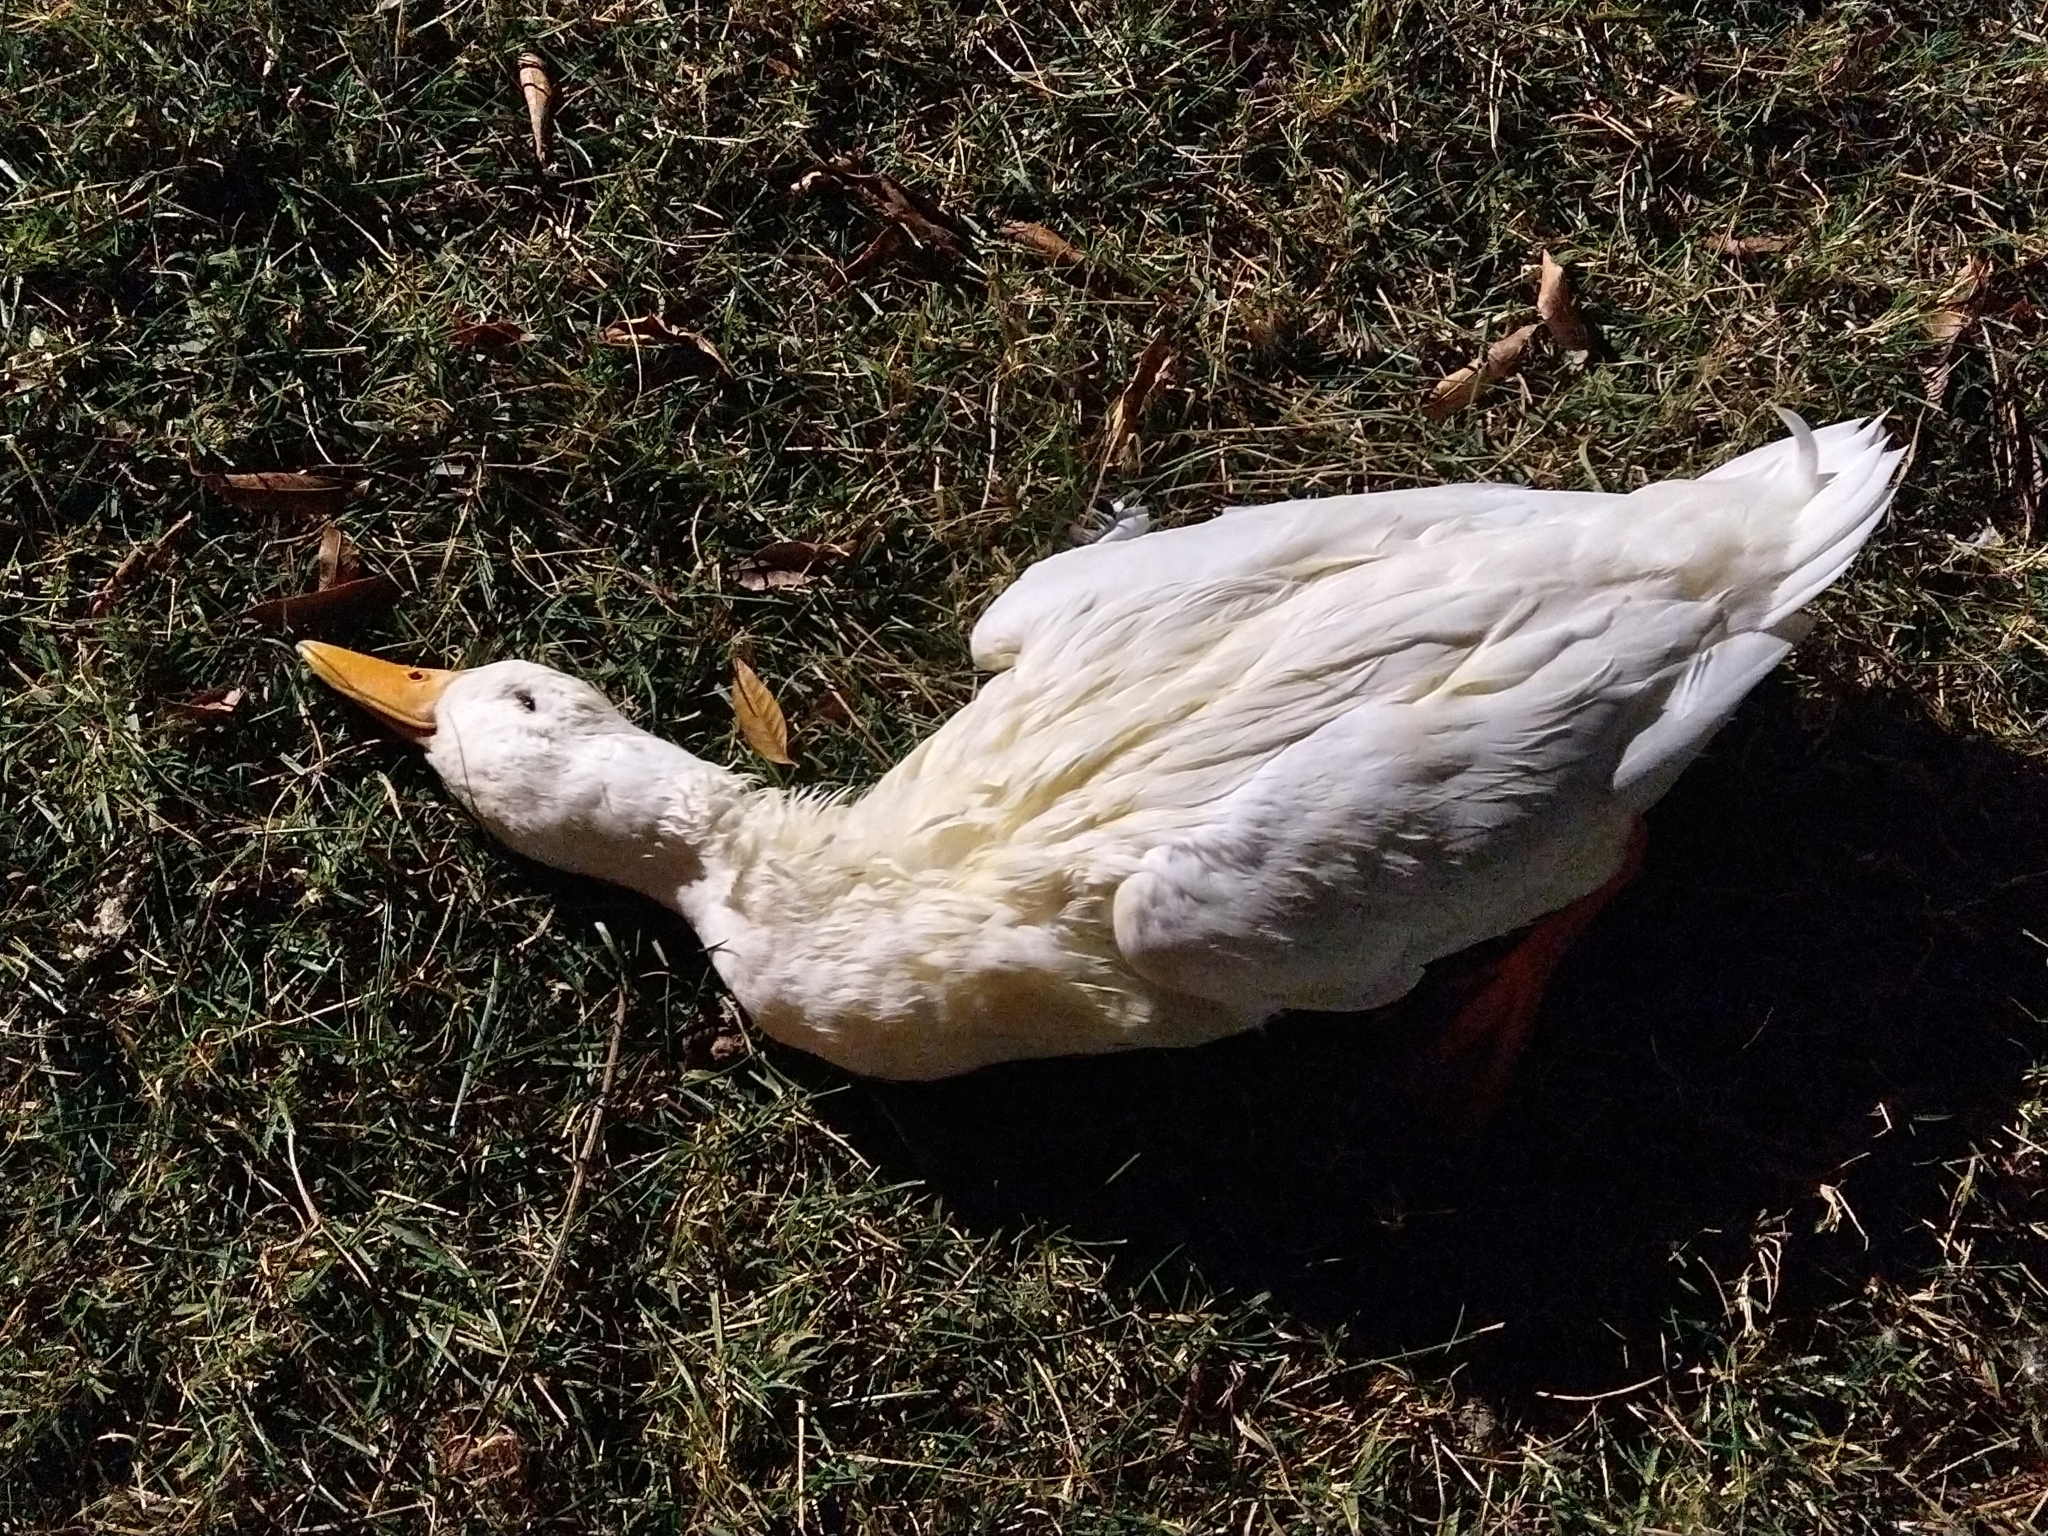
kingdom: Animalia
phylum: Chordata
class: Aves
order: Anseriformes
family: Anatidae
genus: Anas
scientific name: Anas platyrhynchos
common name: Mallard
